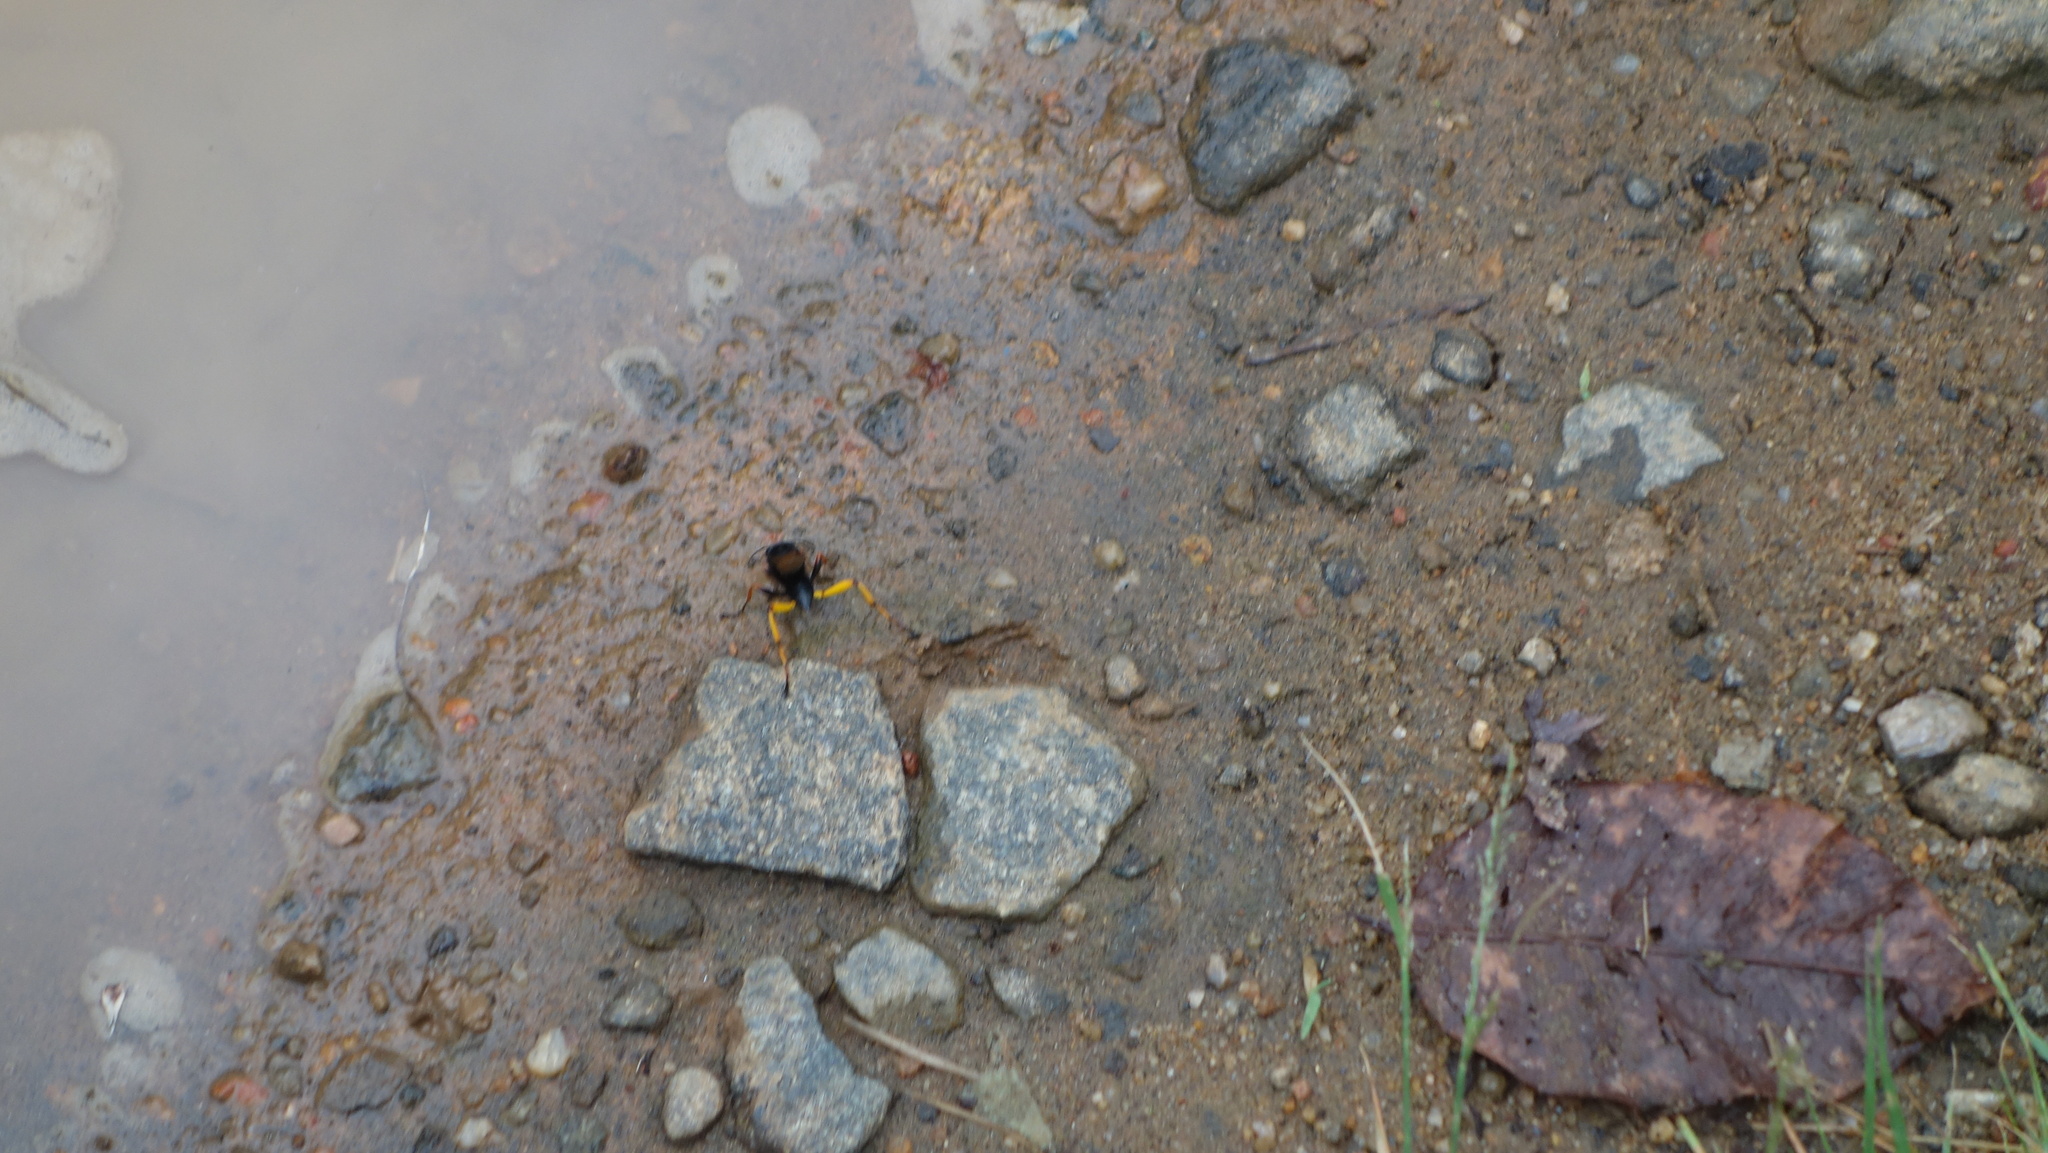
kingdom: Animalia
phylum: Arthropoda
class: Insecta
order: Hymenoptera
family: Sphecidae
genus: Sceliphron
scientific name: Sceliphron javanum
